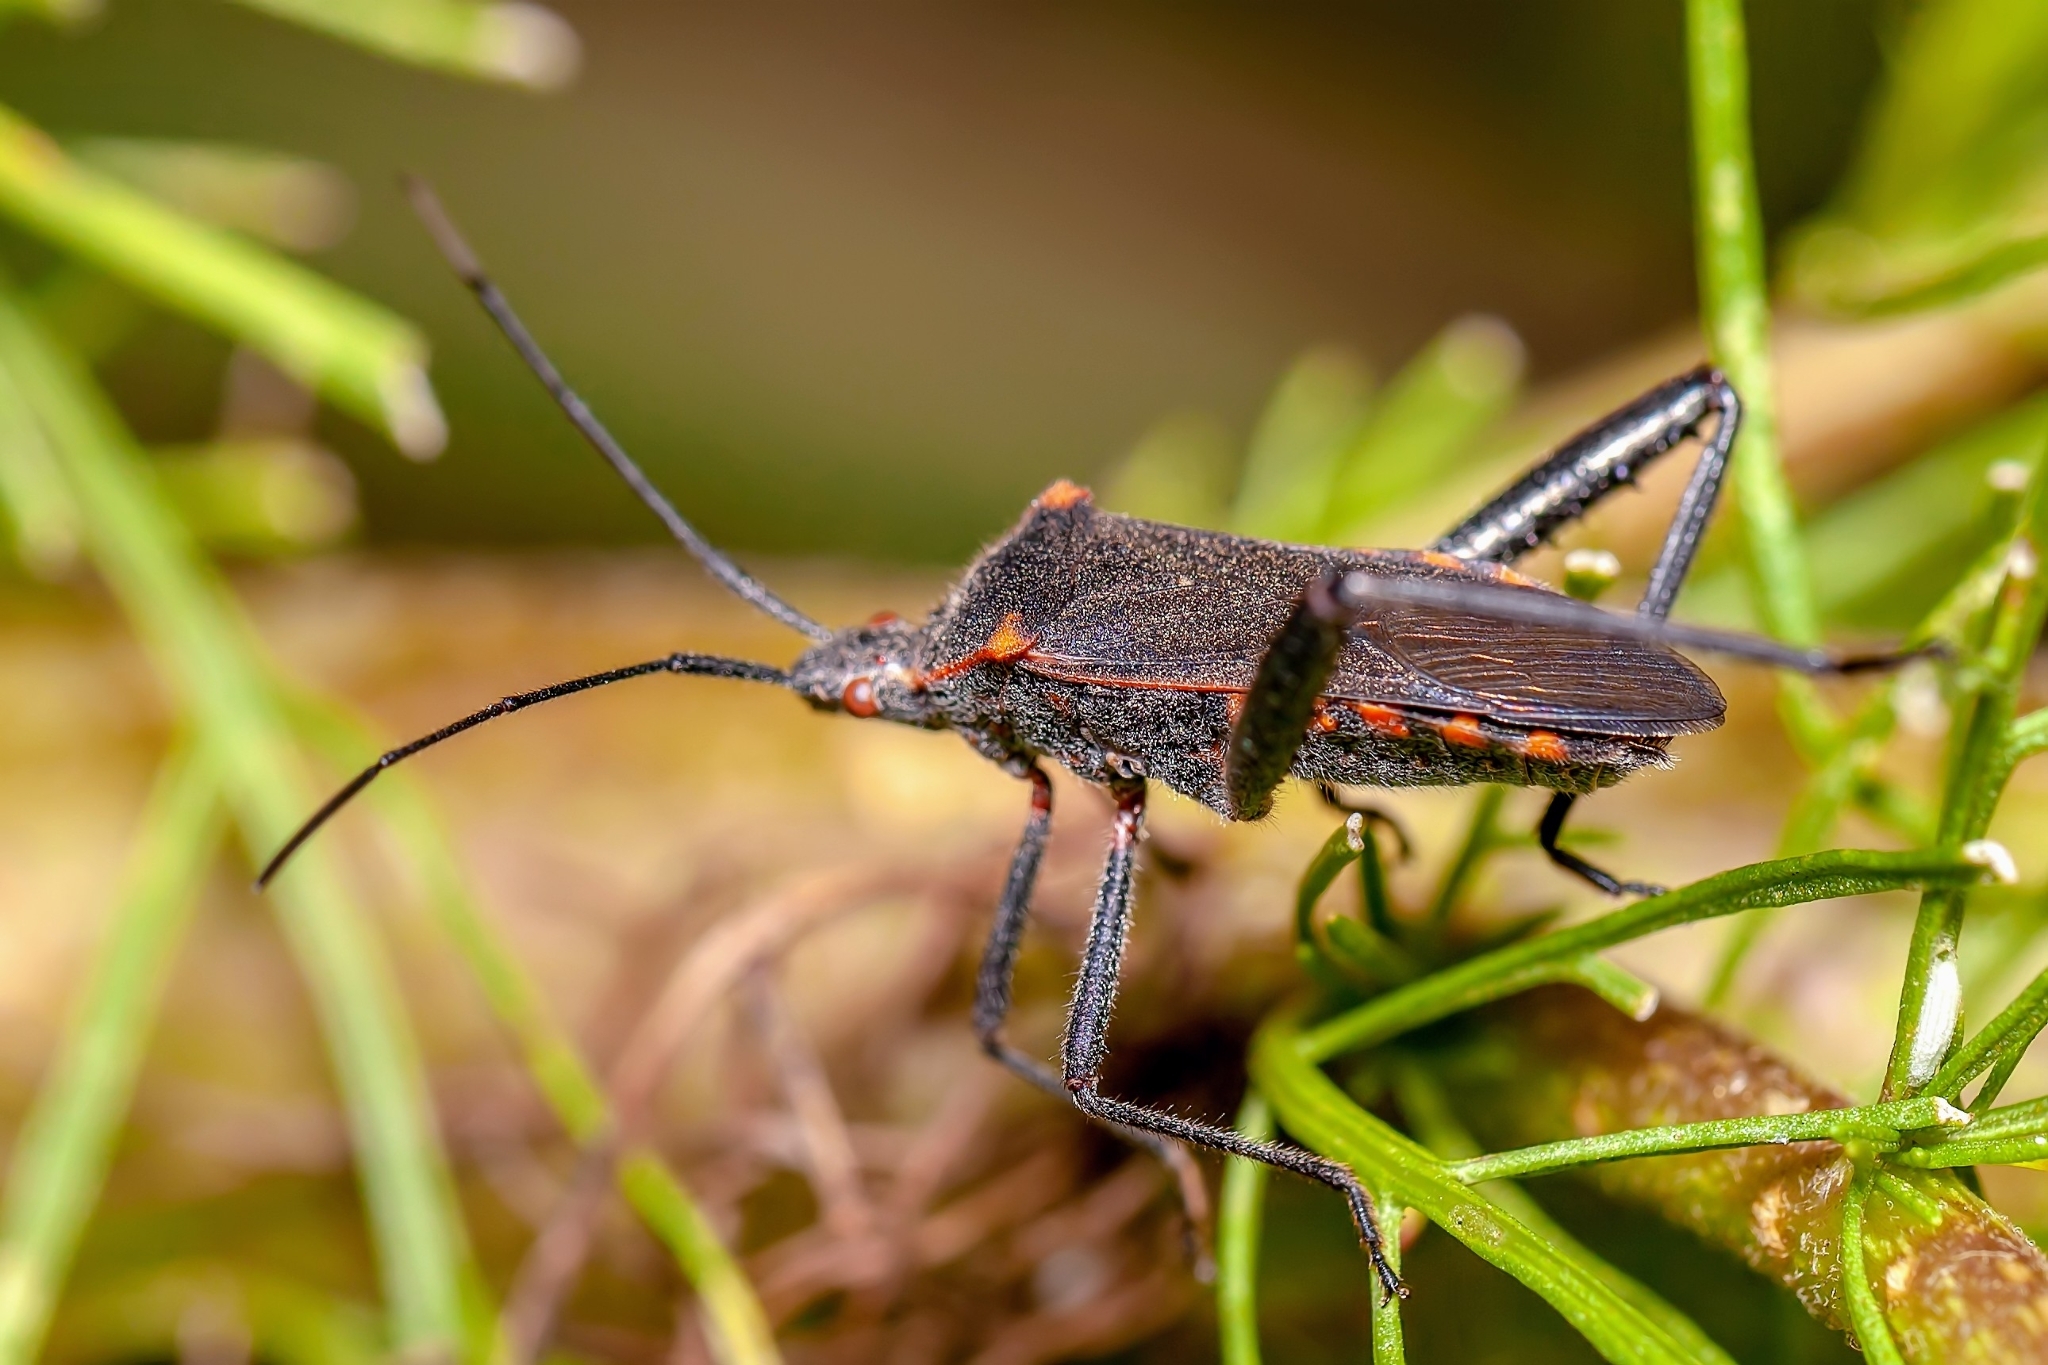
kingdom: Animalia
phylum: Arthropoda
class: Insecta
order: Hemiptera
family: Coreidae
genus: Phthiacnemia
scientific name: Phthiacnemia picta
